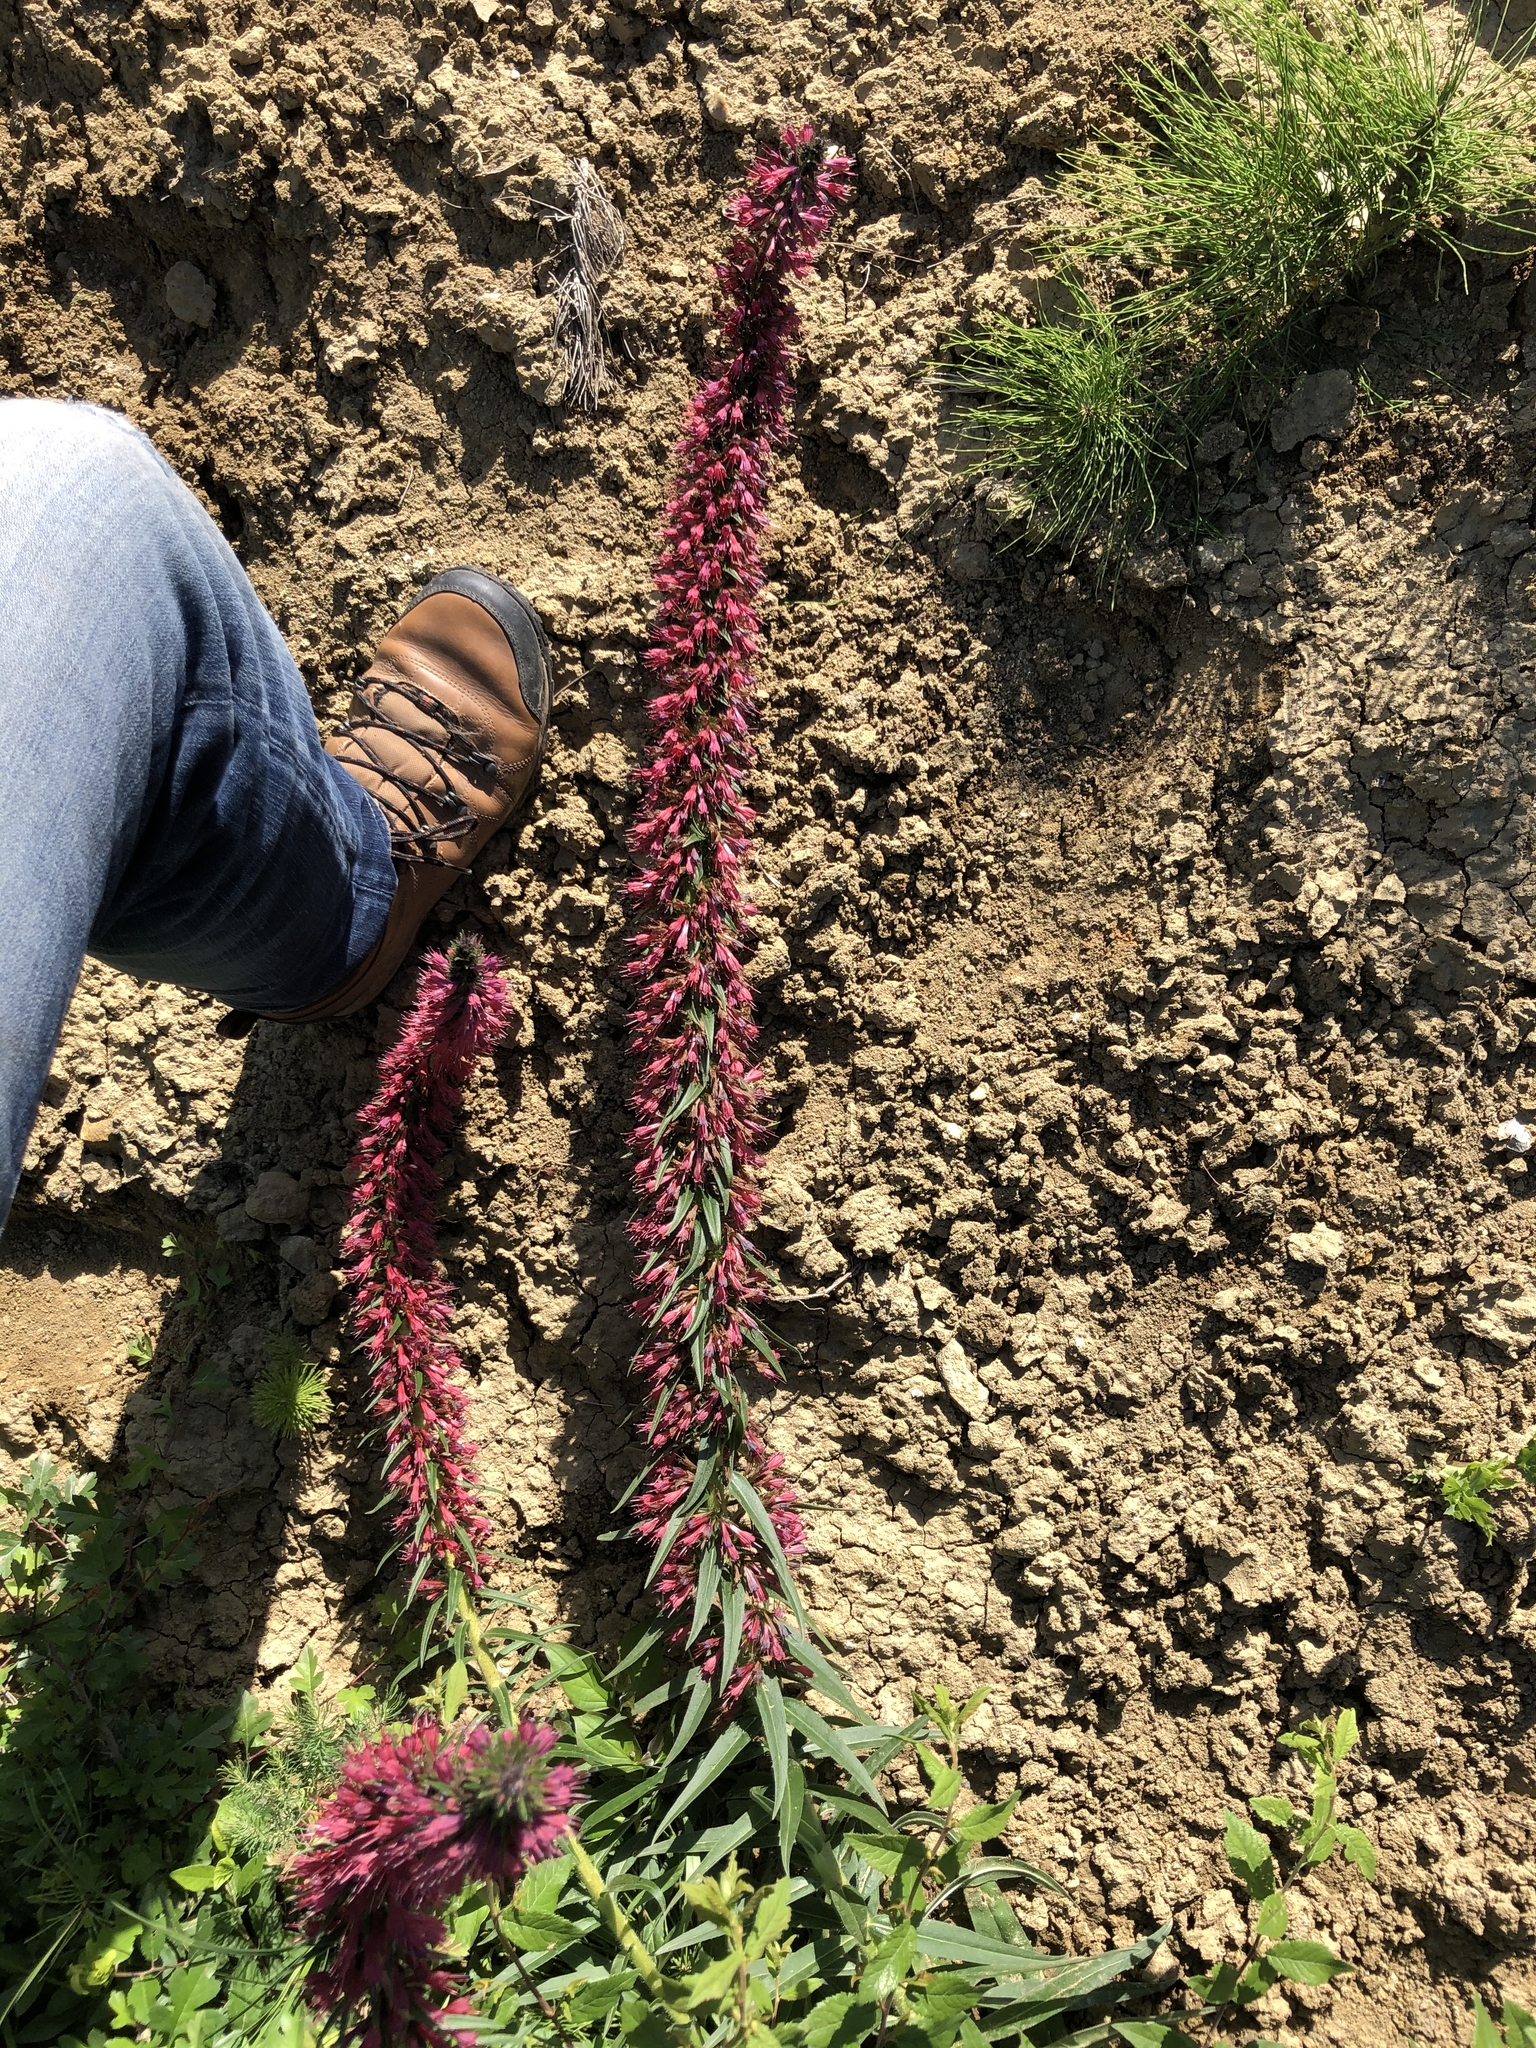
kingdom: Plantae
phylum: Tracheophyta
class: Magnoliopsida
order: Boraginales
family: Boraginaceae
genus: Pontechium
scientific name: Pontechium maculatum
